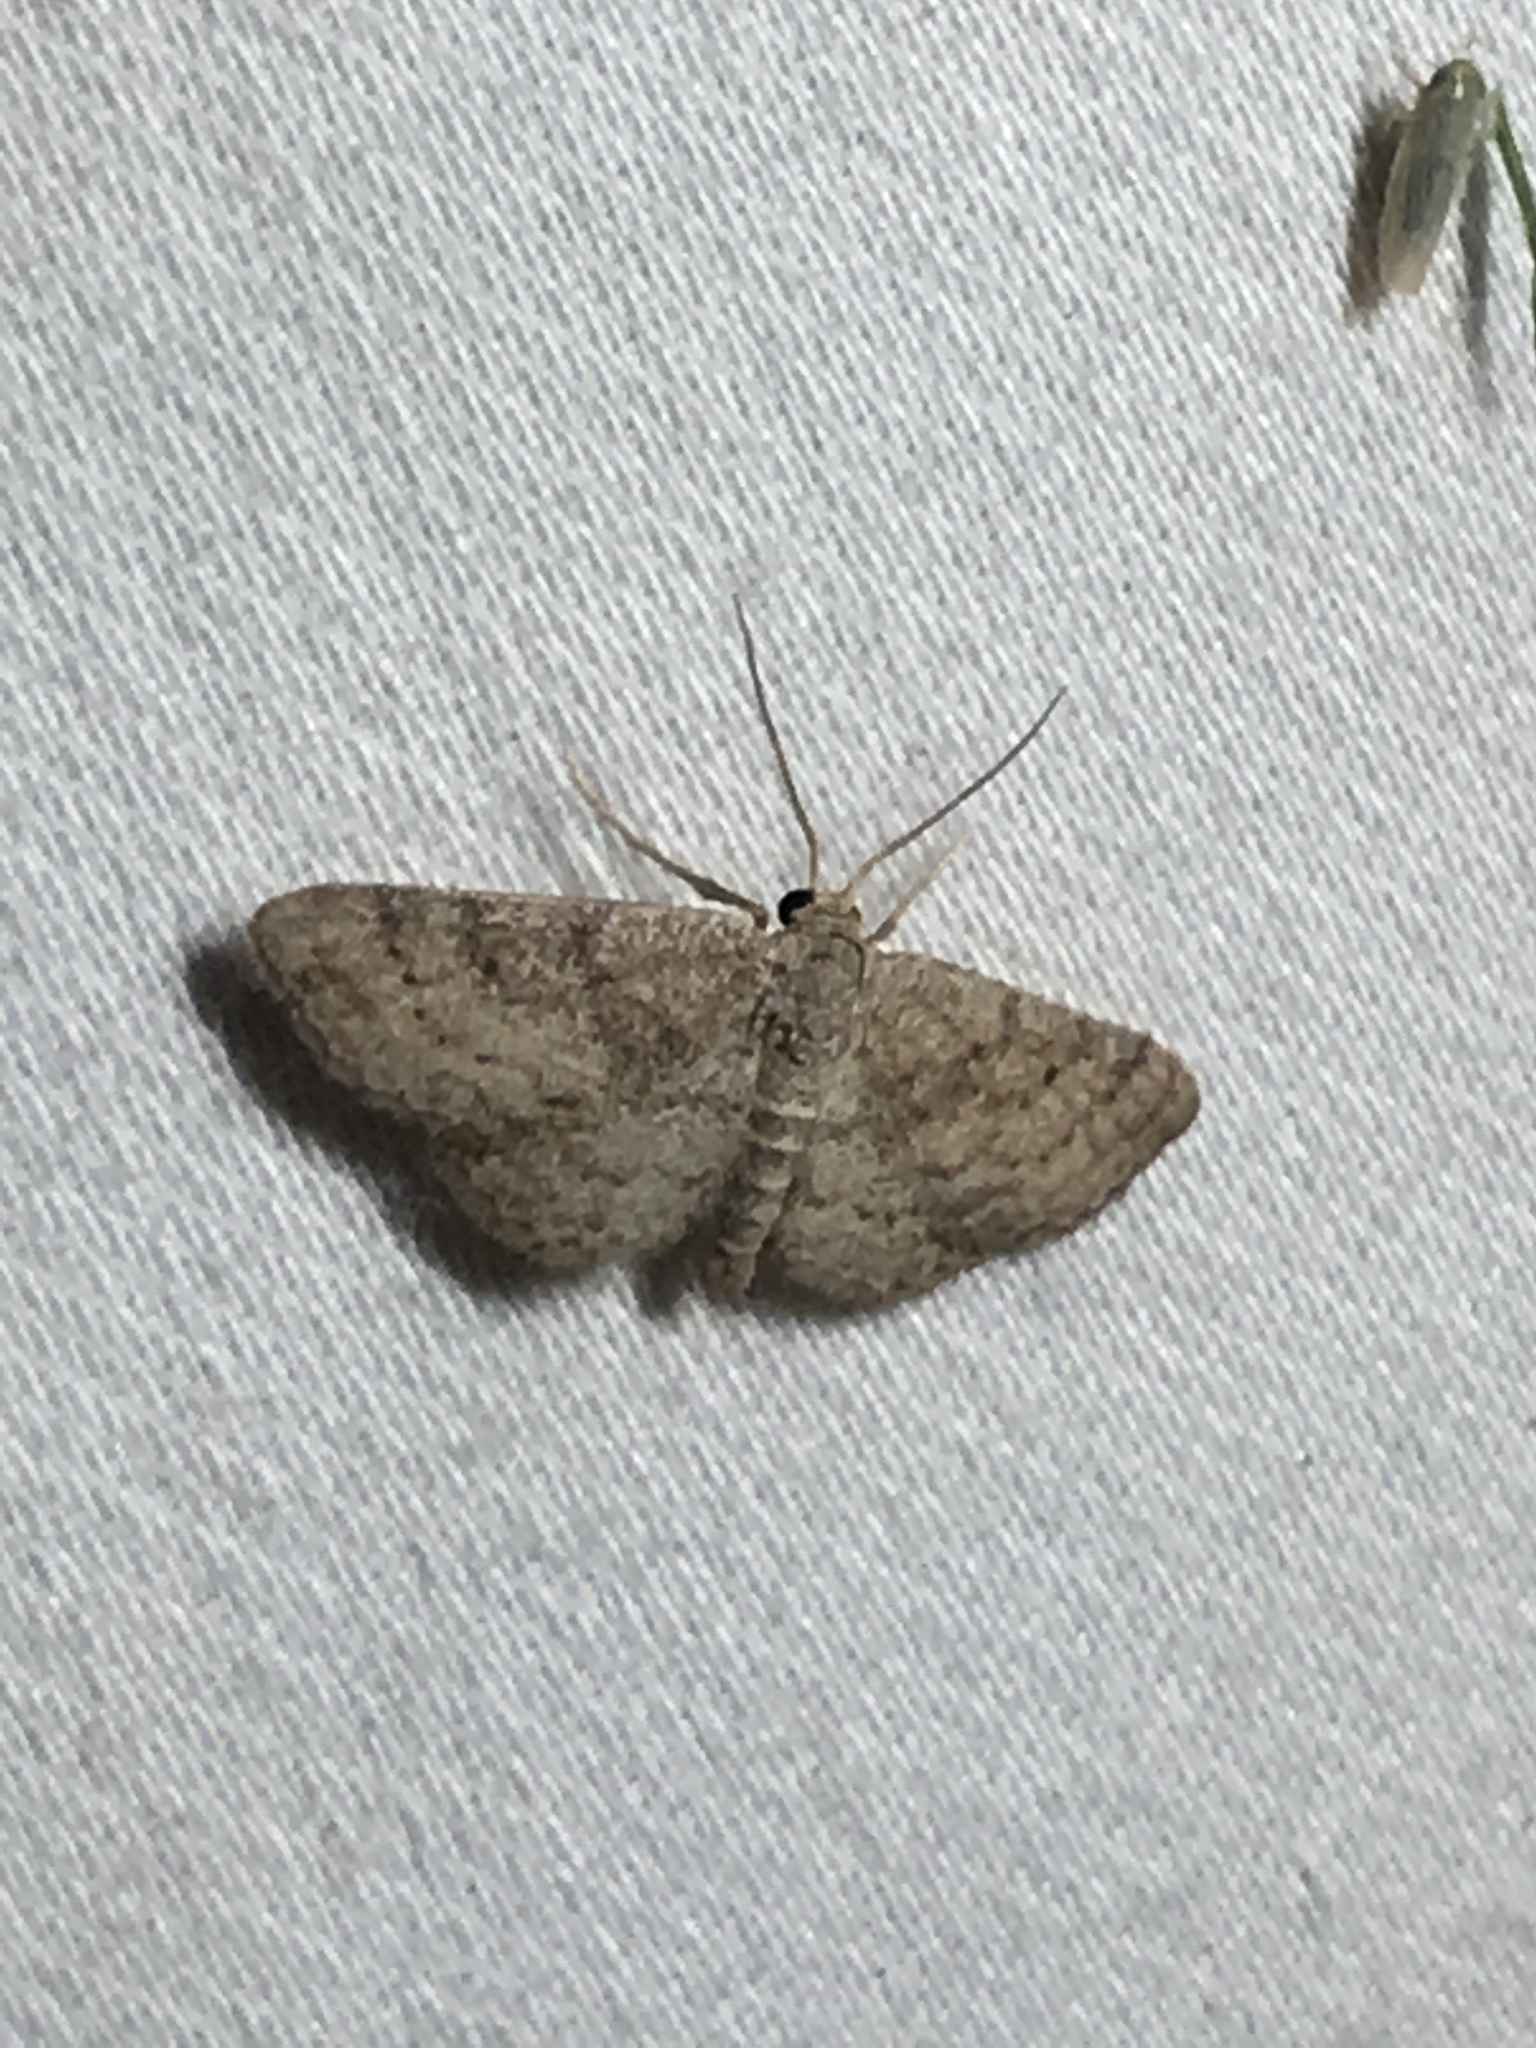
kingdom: Animalia
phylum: Arthropoda
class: Insecta
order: Lepidoptera
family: Geometridae
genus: Lobocleta
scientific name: Lobocleta ossularia
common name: Drab brown wave
